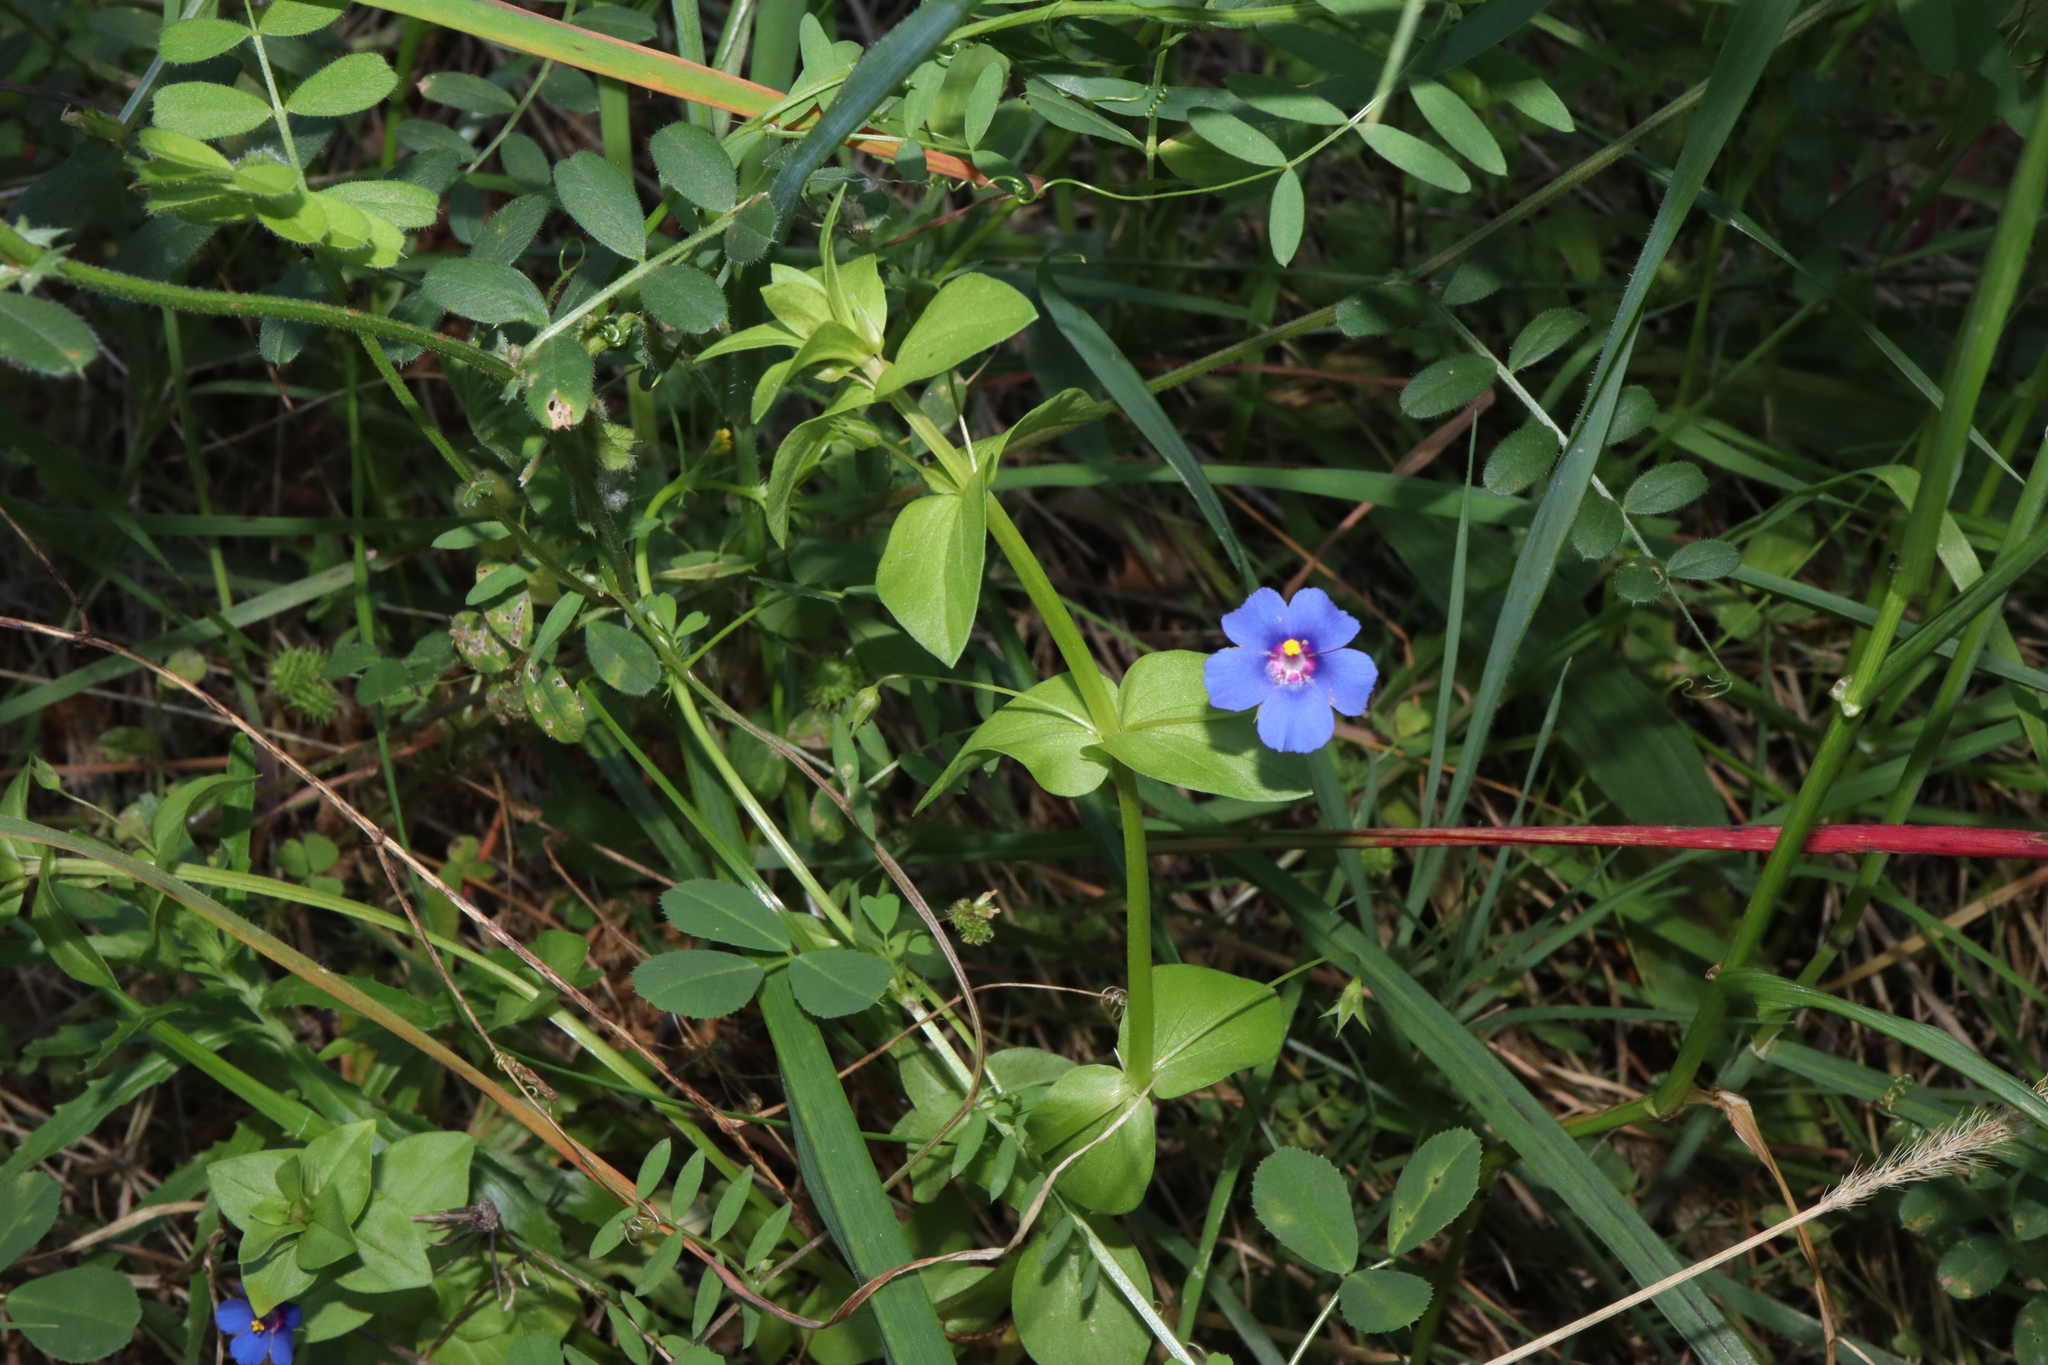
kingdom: Plantae
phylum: Tracheophyta
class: Magnoliopsida
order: Ericales
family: Primulaceae
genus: Lysimachia
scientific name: Lysimachia loeflingii
